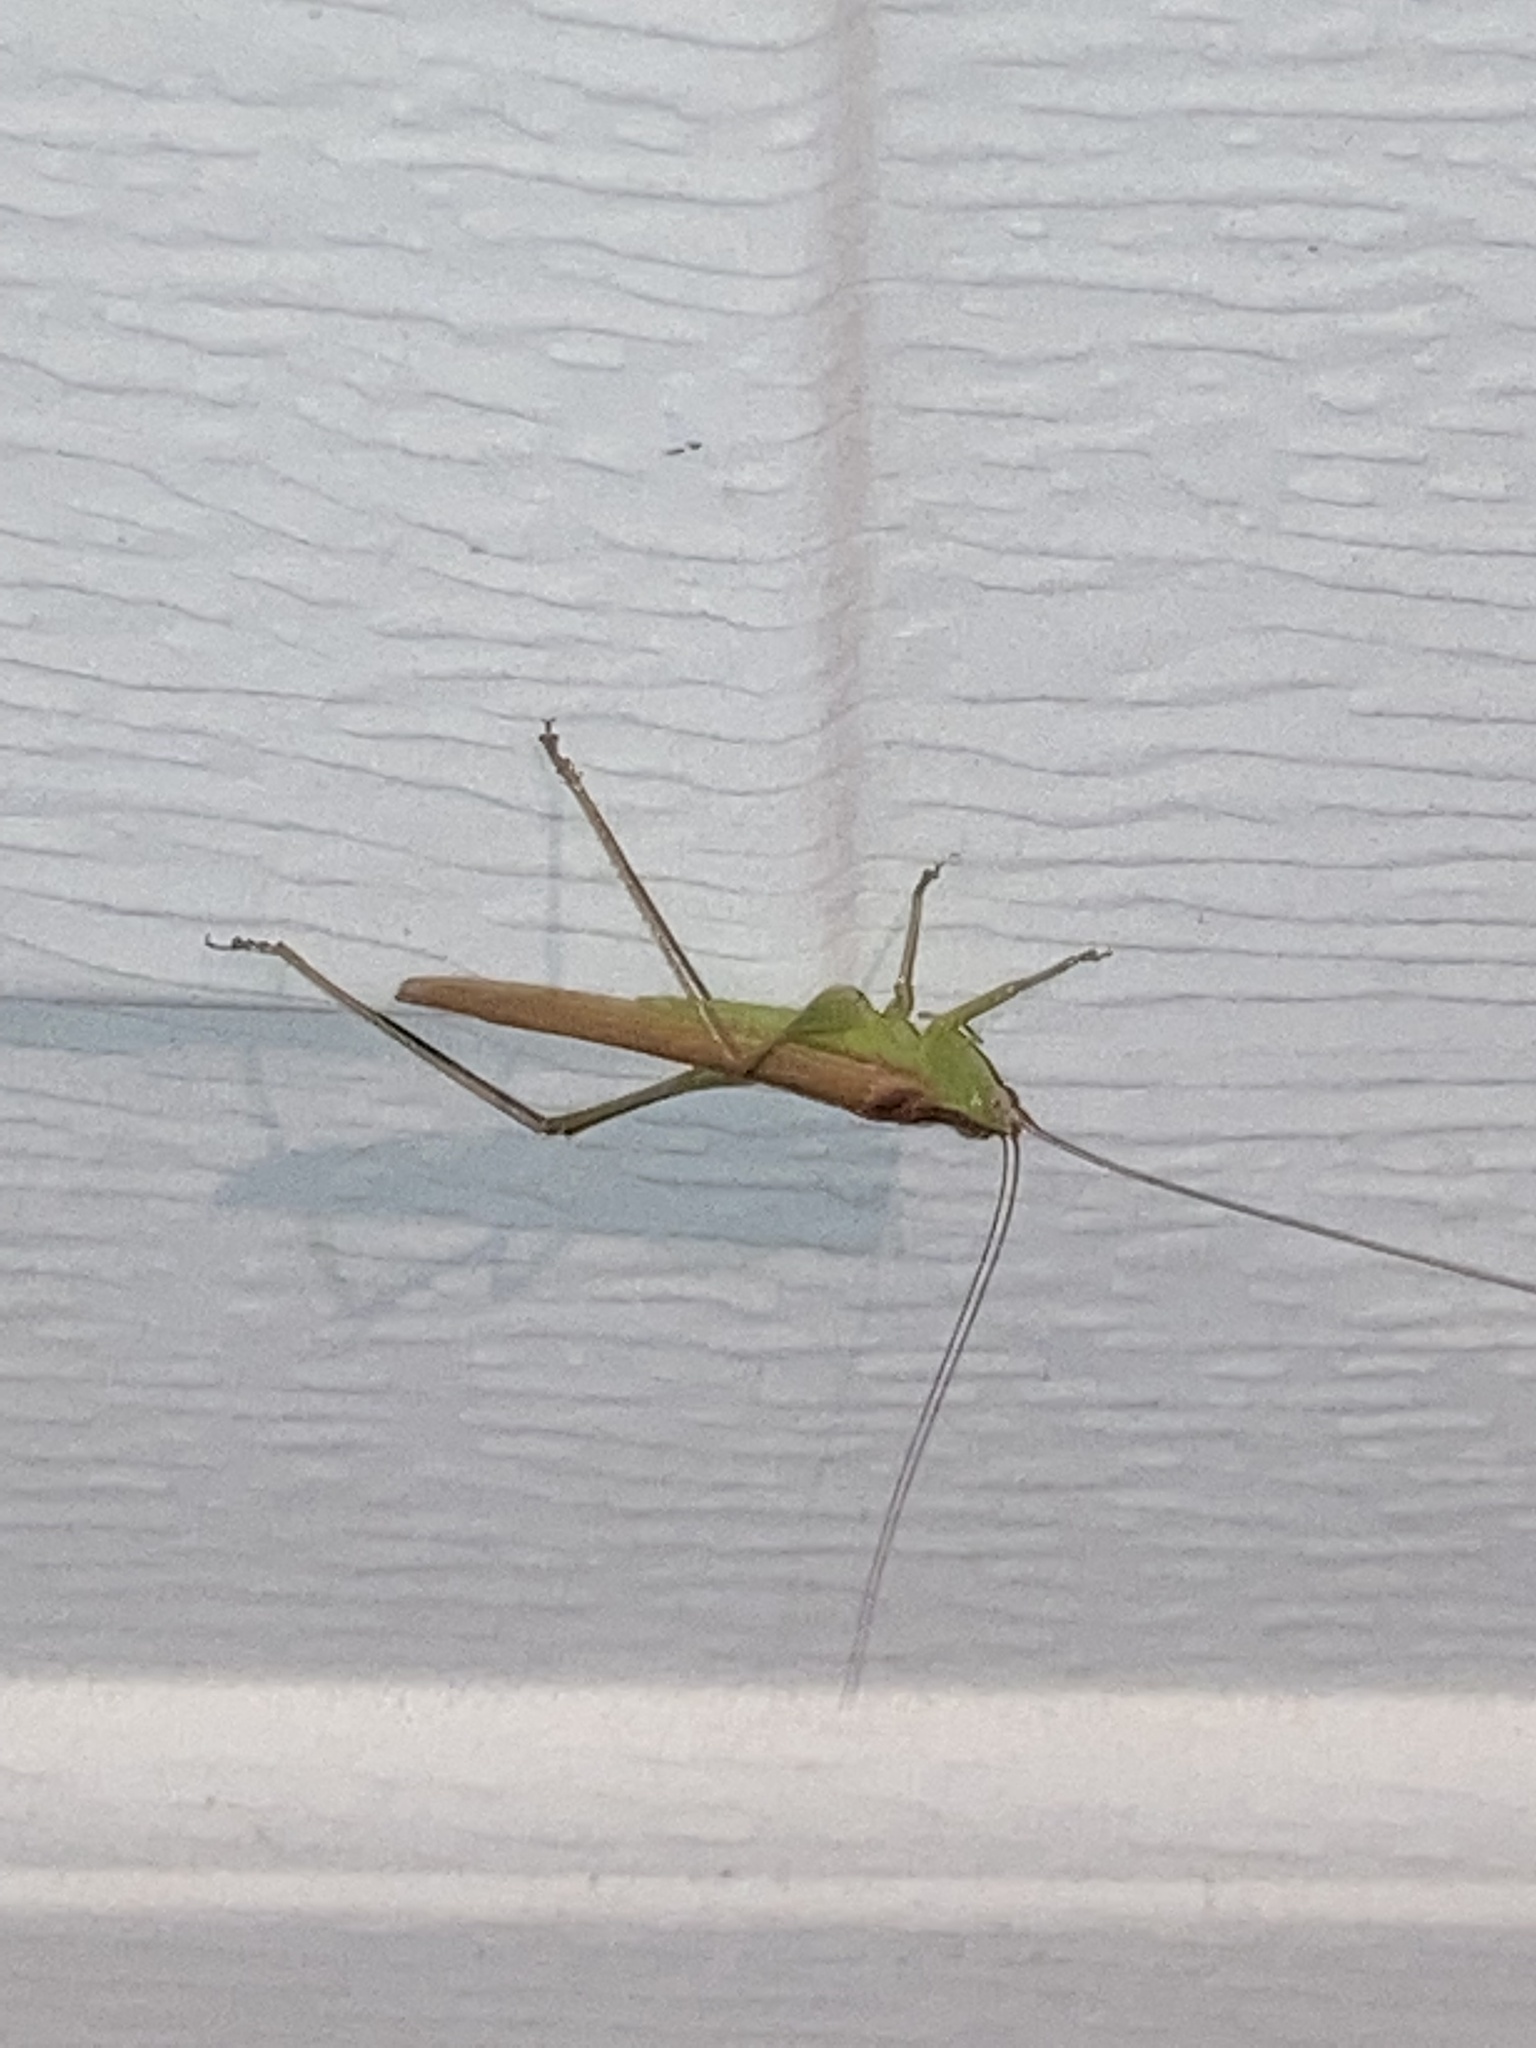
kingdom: Animalia
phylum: Arthropoda
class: Insecta
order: Orthoptera
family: Tettigoniidae
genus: Conocephalus
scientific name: Conocephalus fasciatus
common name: Slender meadow katydid
